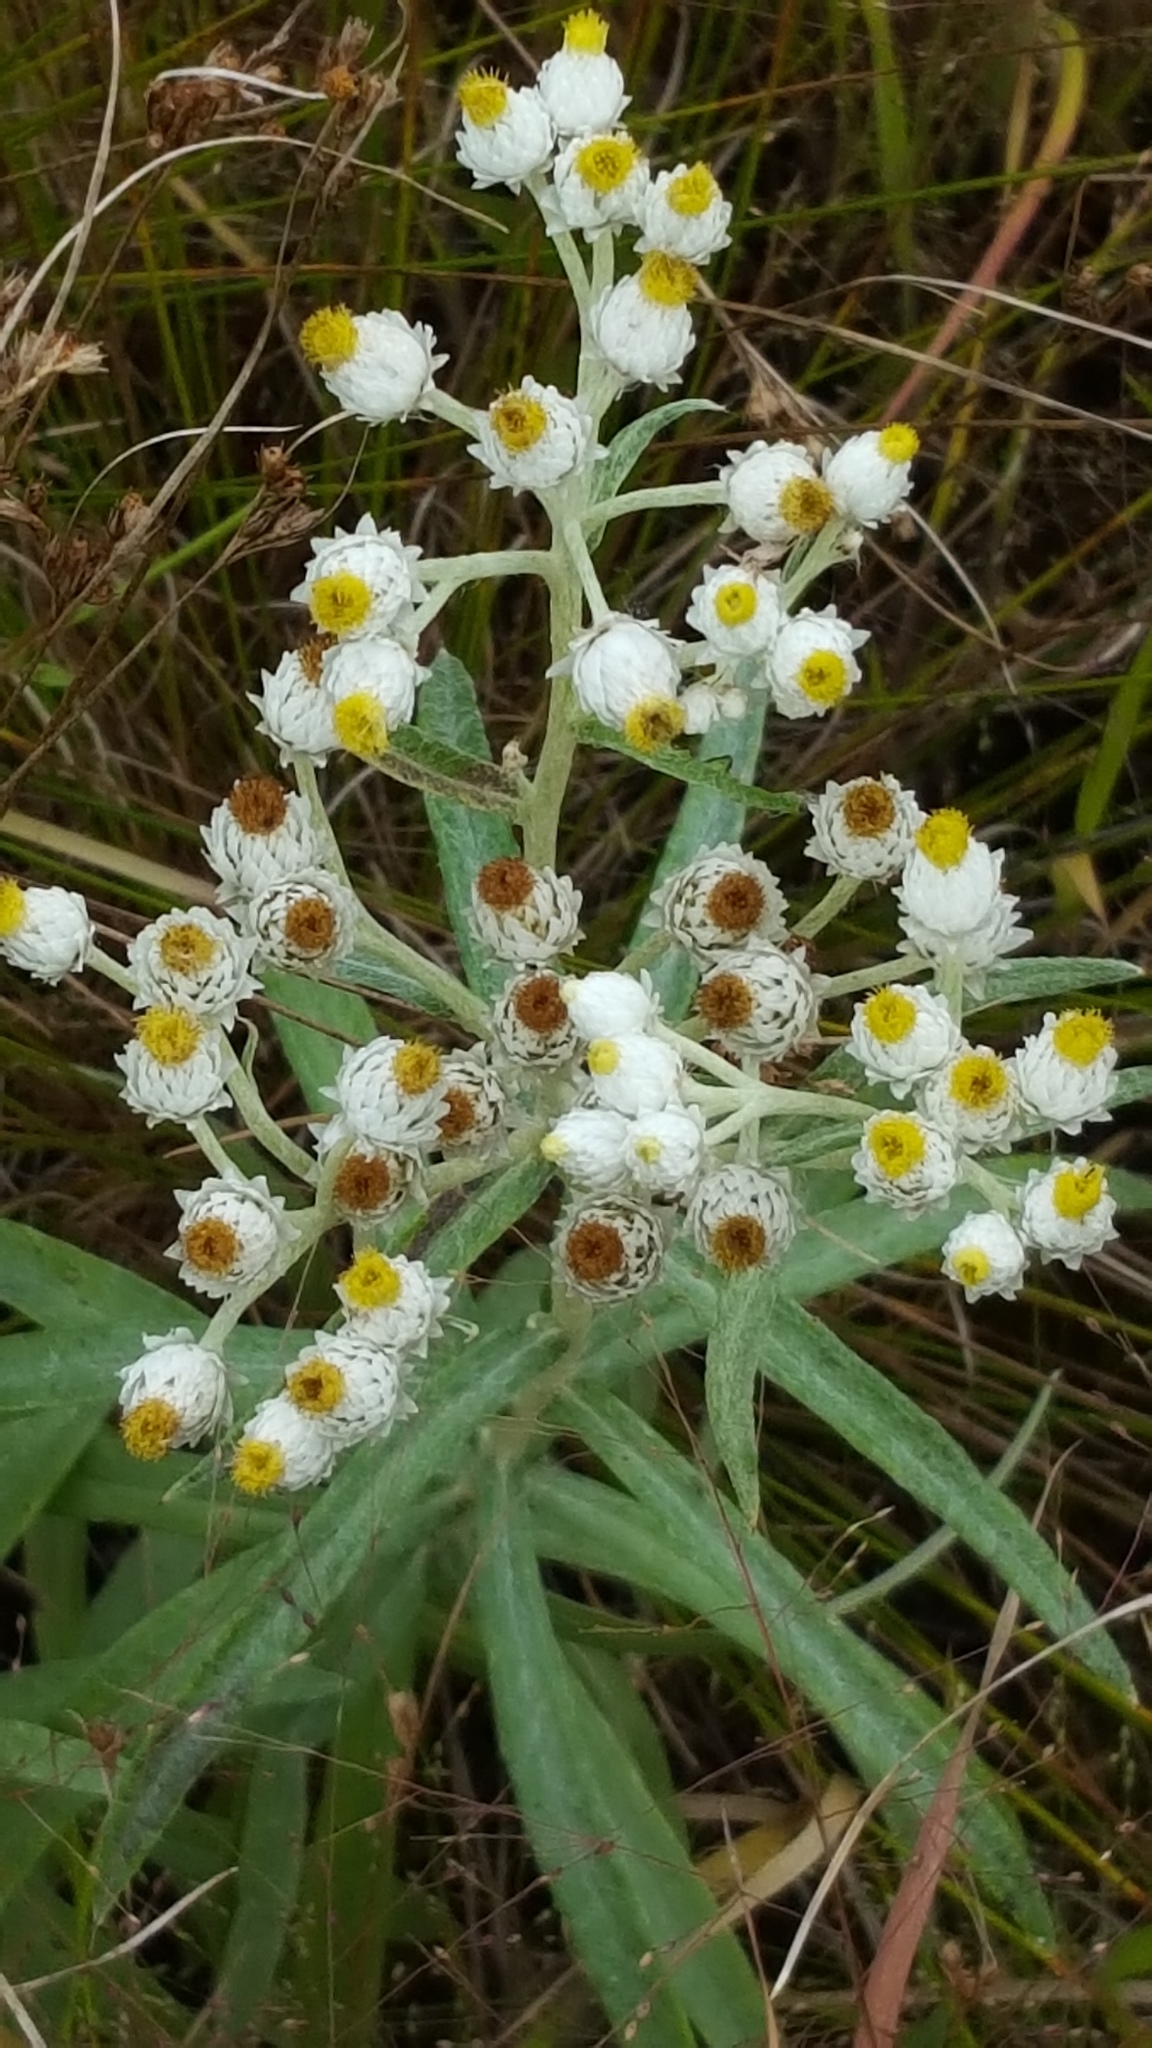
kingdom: Plantae
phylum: Tracheophyta
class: Magnoliopsida
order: Asterales
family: Asteraceae
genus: Anaphalis
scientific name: Anaphalis margaritacea
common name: Pearly everlasting
